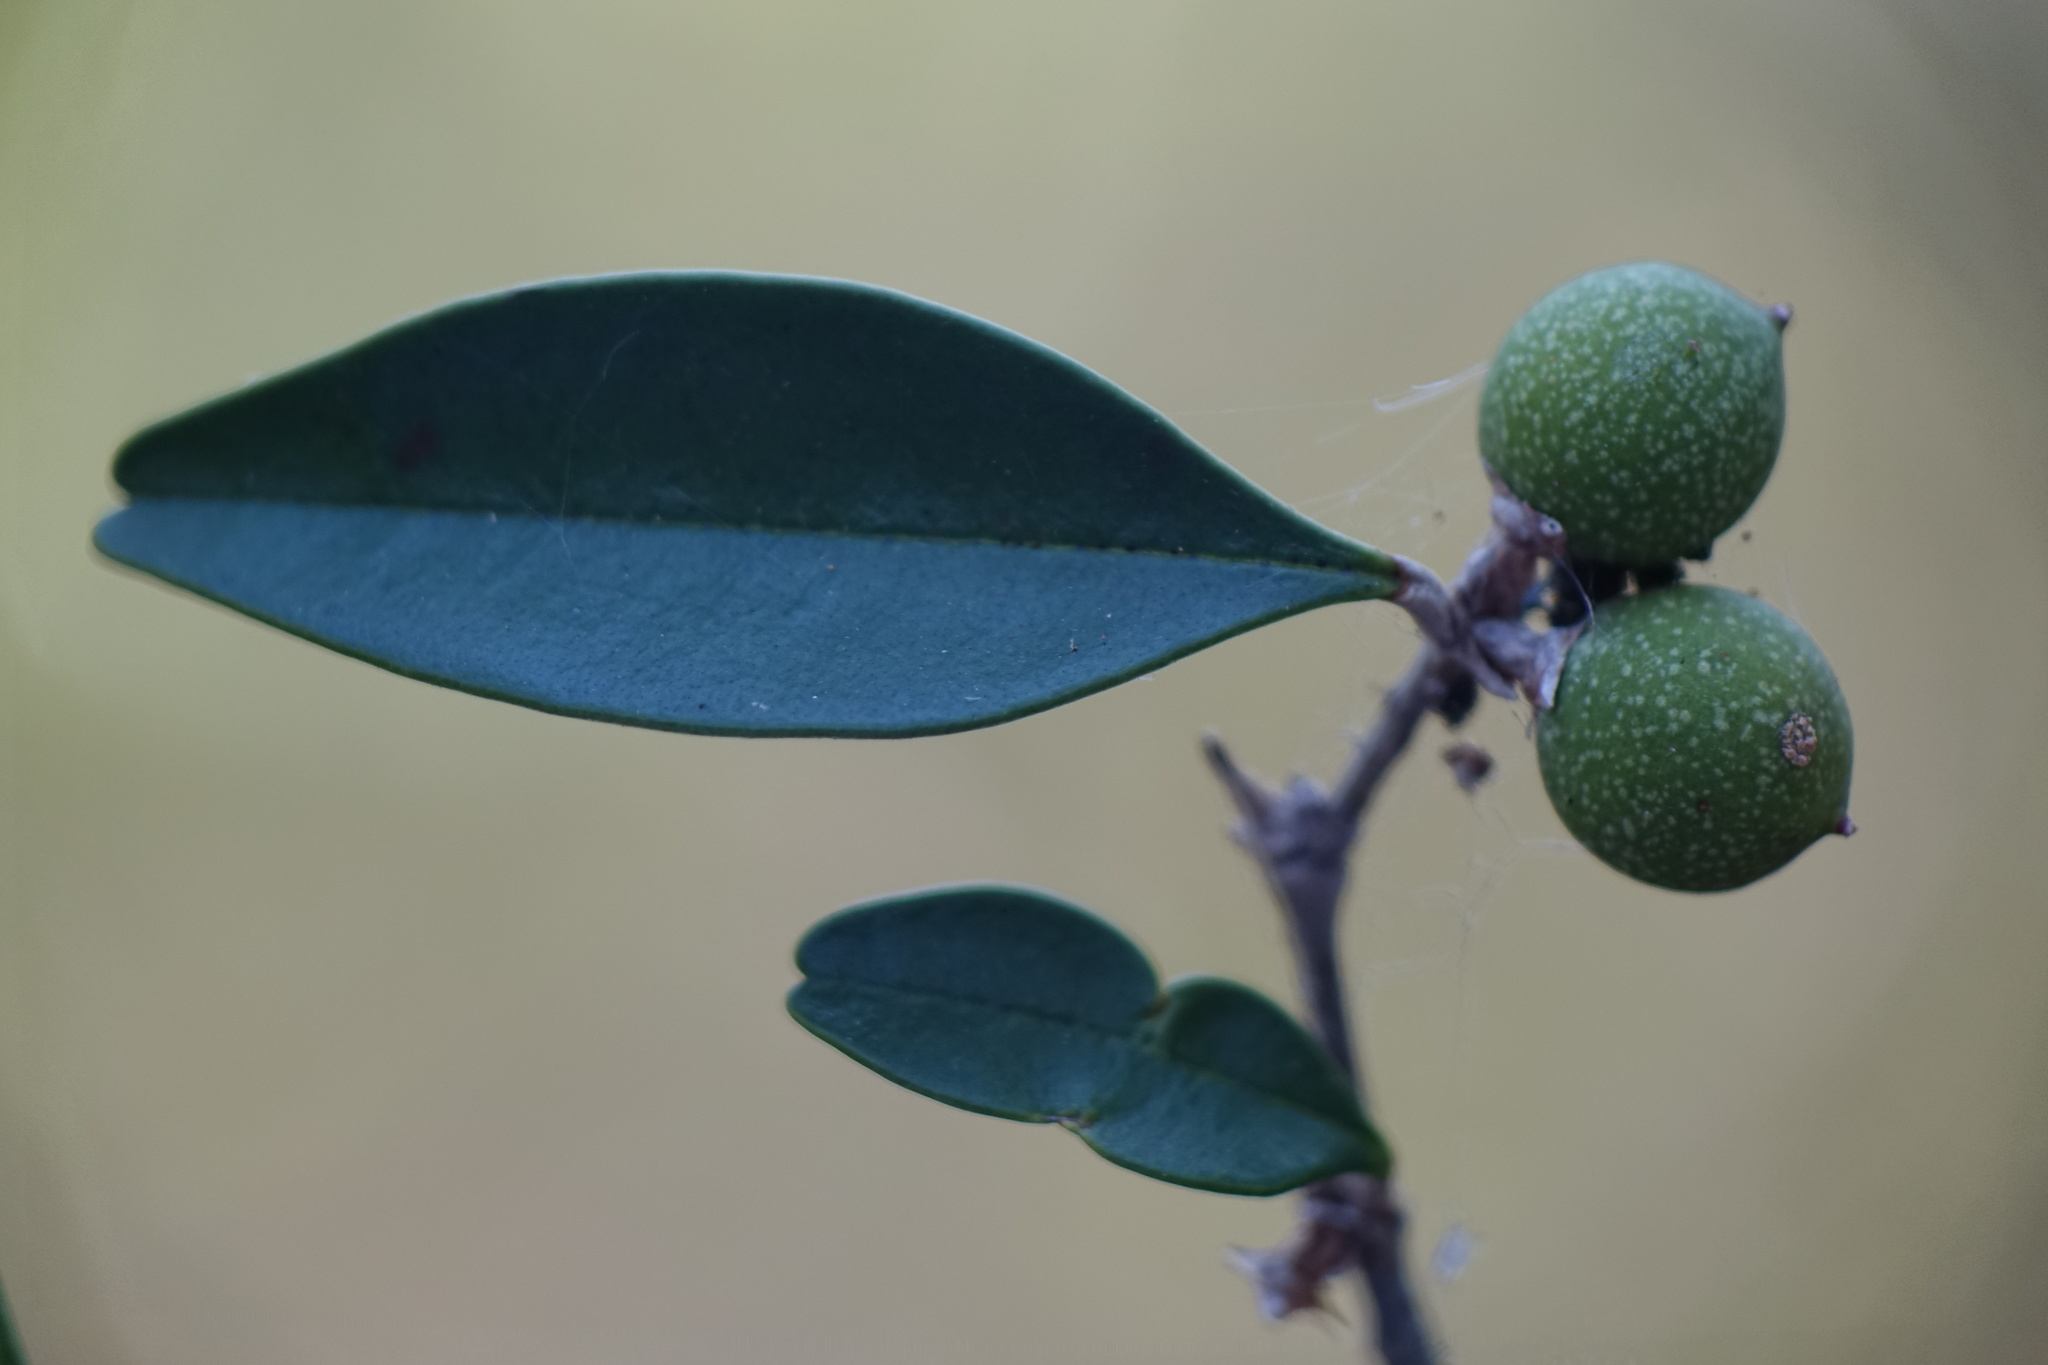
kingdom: Plantae
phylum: Tracheophyta
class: Magnoliopsida
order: Lamiales
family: Oleaceae
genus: Noronhia
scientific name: Noronhia boinensis
